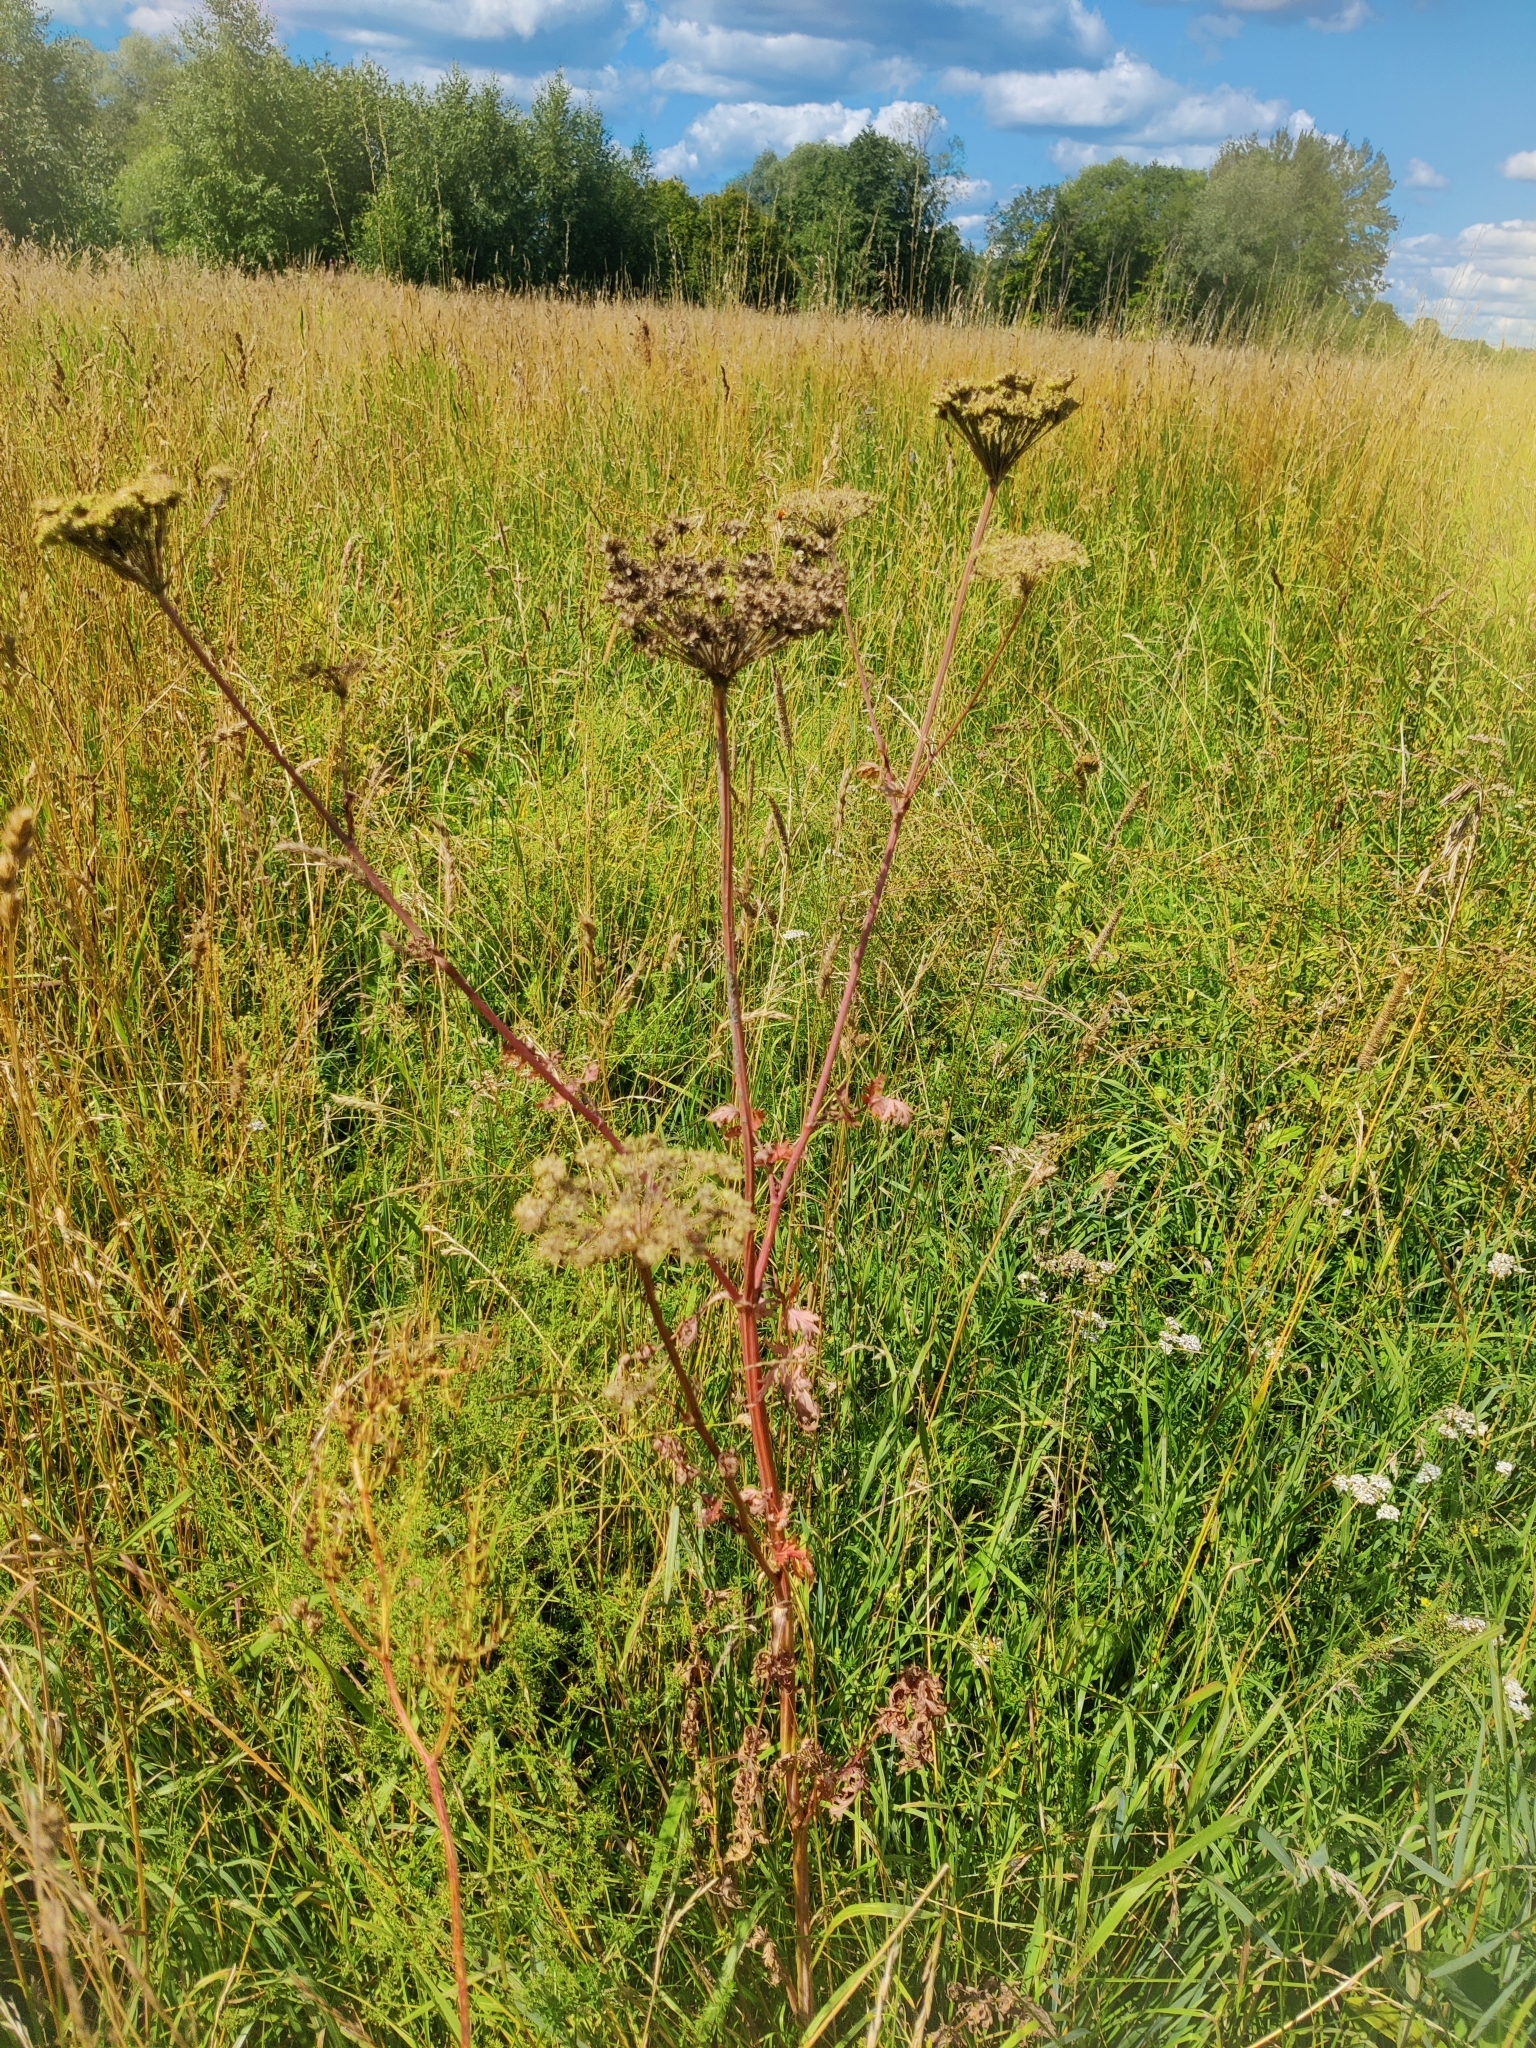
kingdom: Plantae
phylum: Tracheophyta
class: Magnoliopsida
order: Apiales
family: Apiaceae
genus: Seseli
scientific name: Seseli libanotis
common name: Mooncarrot
